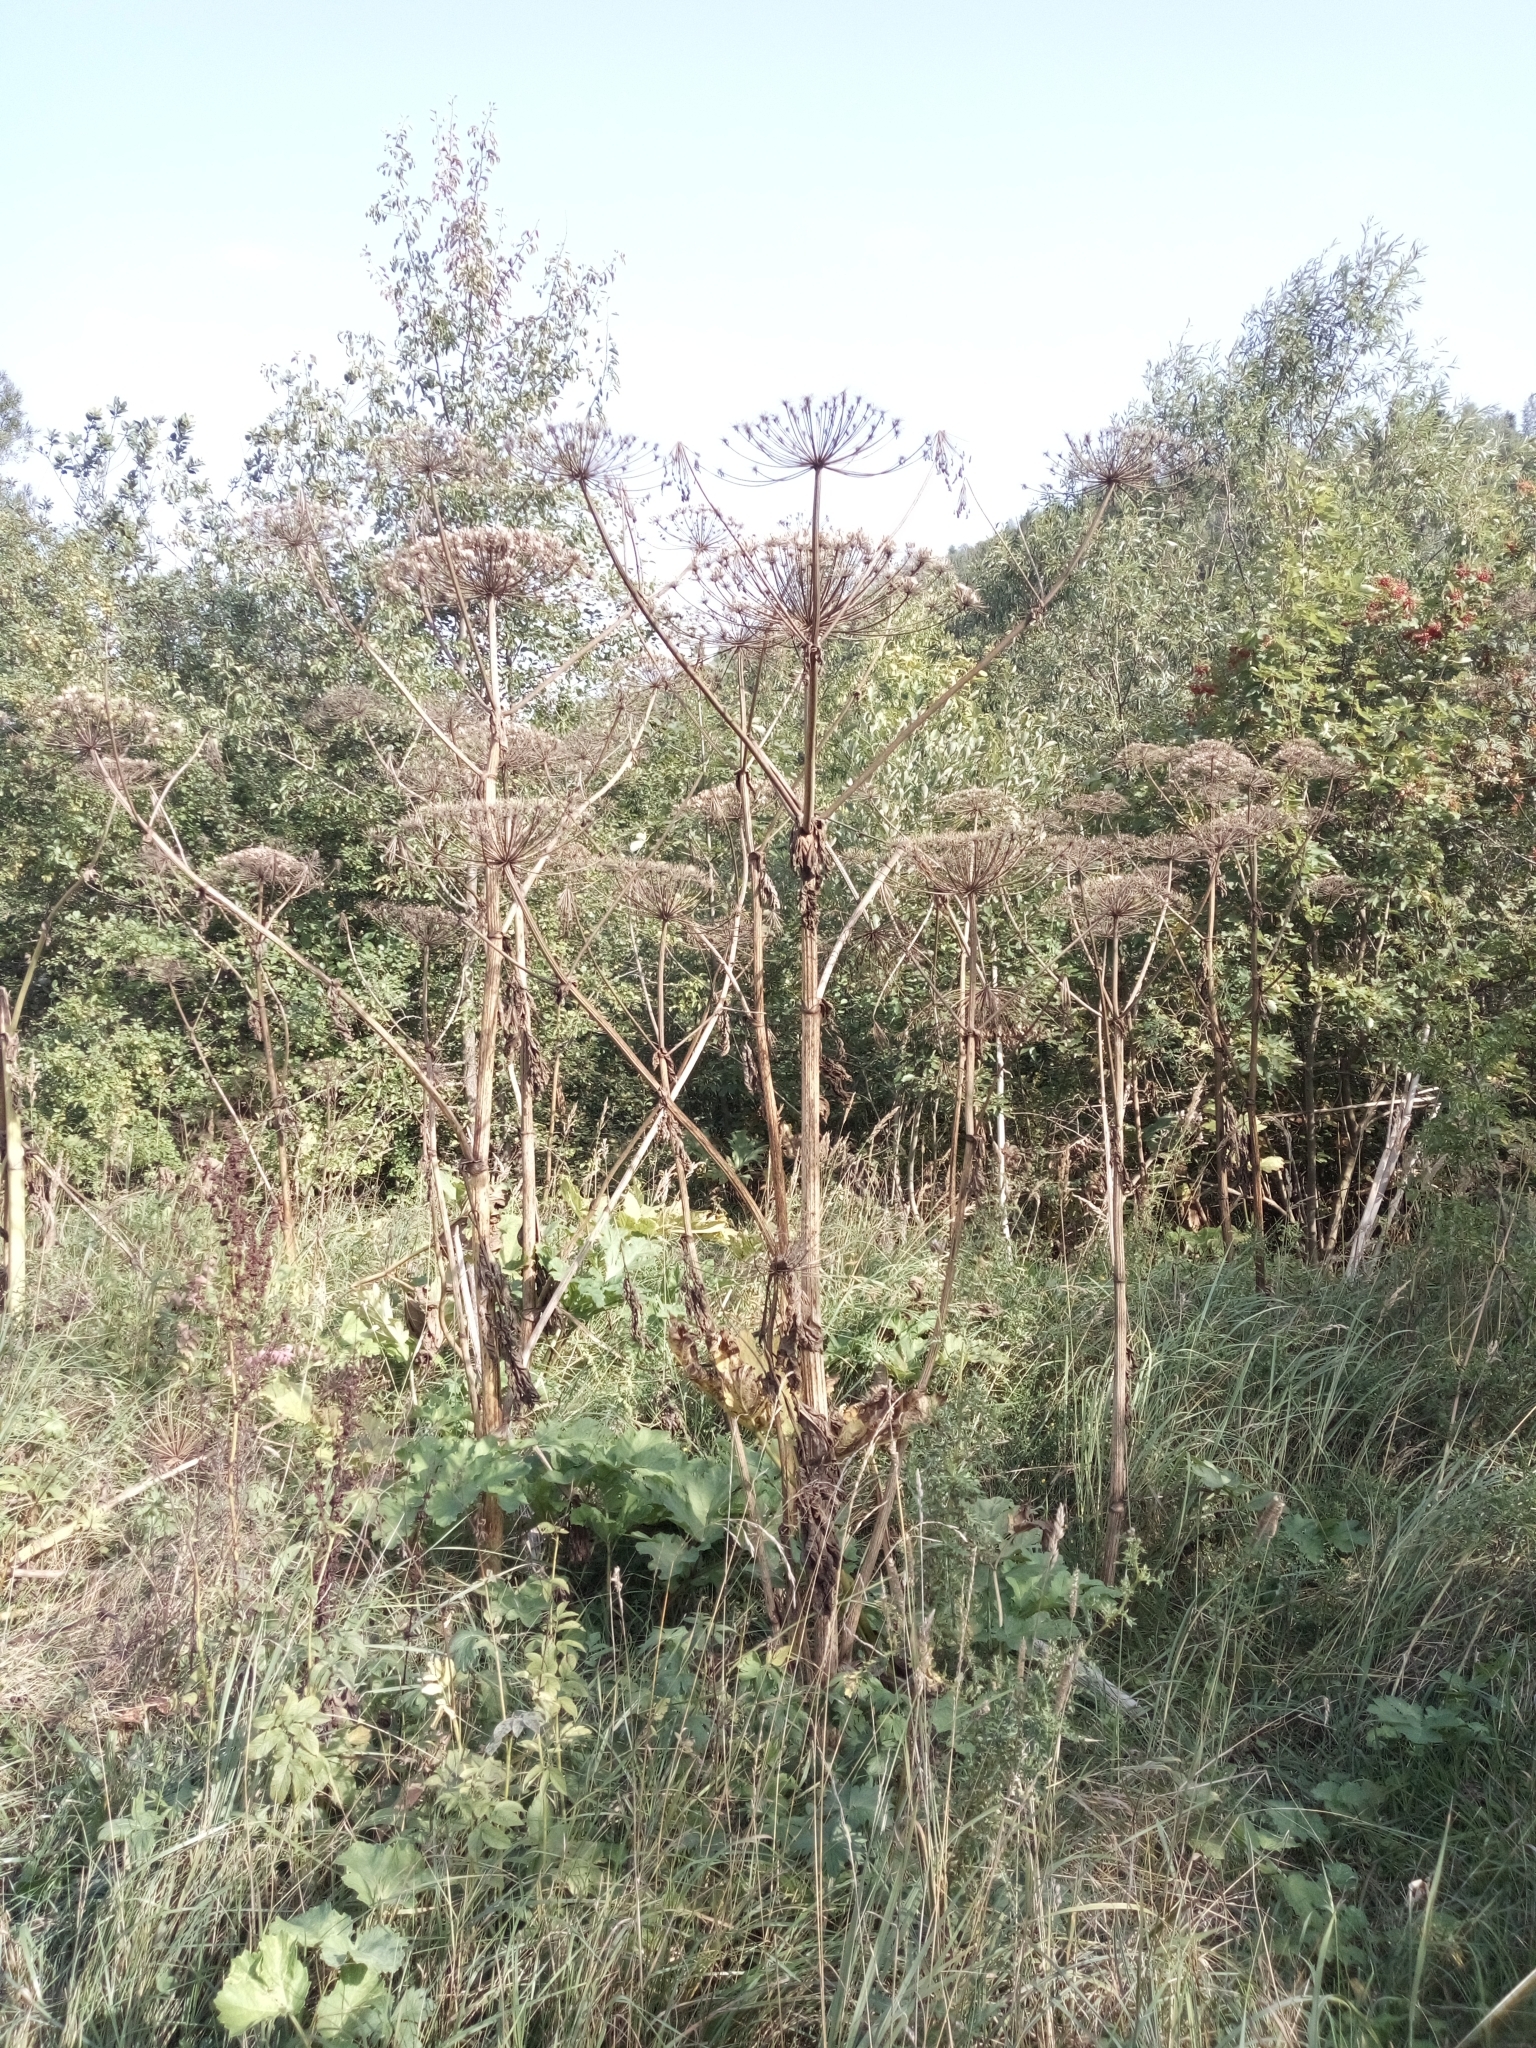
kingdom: Plantae
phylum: Tracheophyta
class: Magnoliopsida
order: Apiales
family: Apiaceae
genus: Heracleum
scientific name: Heracleum sosnowskyi
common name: Sosnowsky's hogweed
